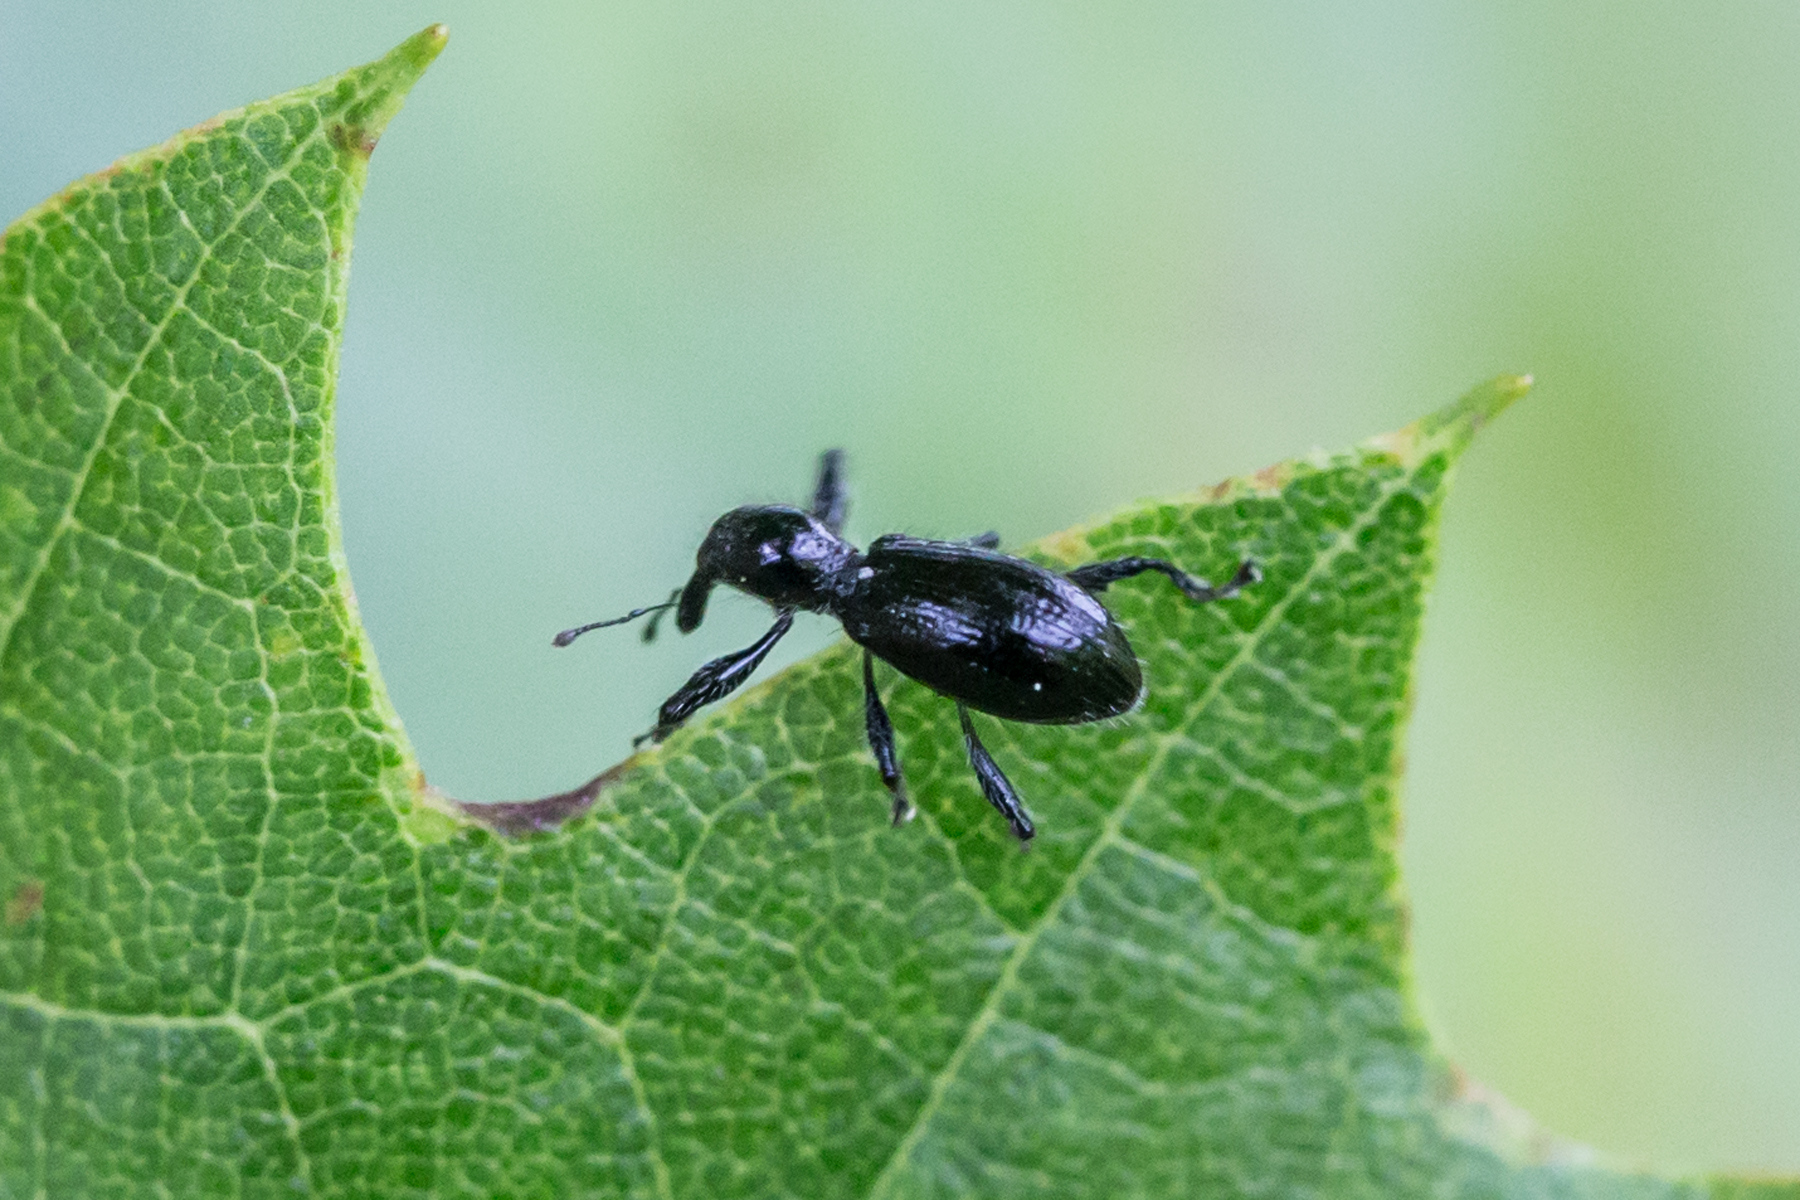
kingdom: Animalia
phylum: Arthropoda
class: Insecta
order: Coleoptera
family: Curculionidae
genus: Myrmex
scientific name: Myrmex myrmex
